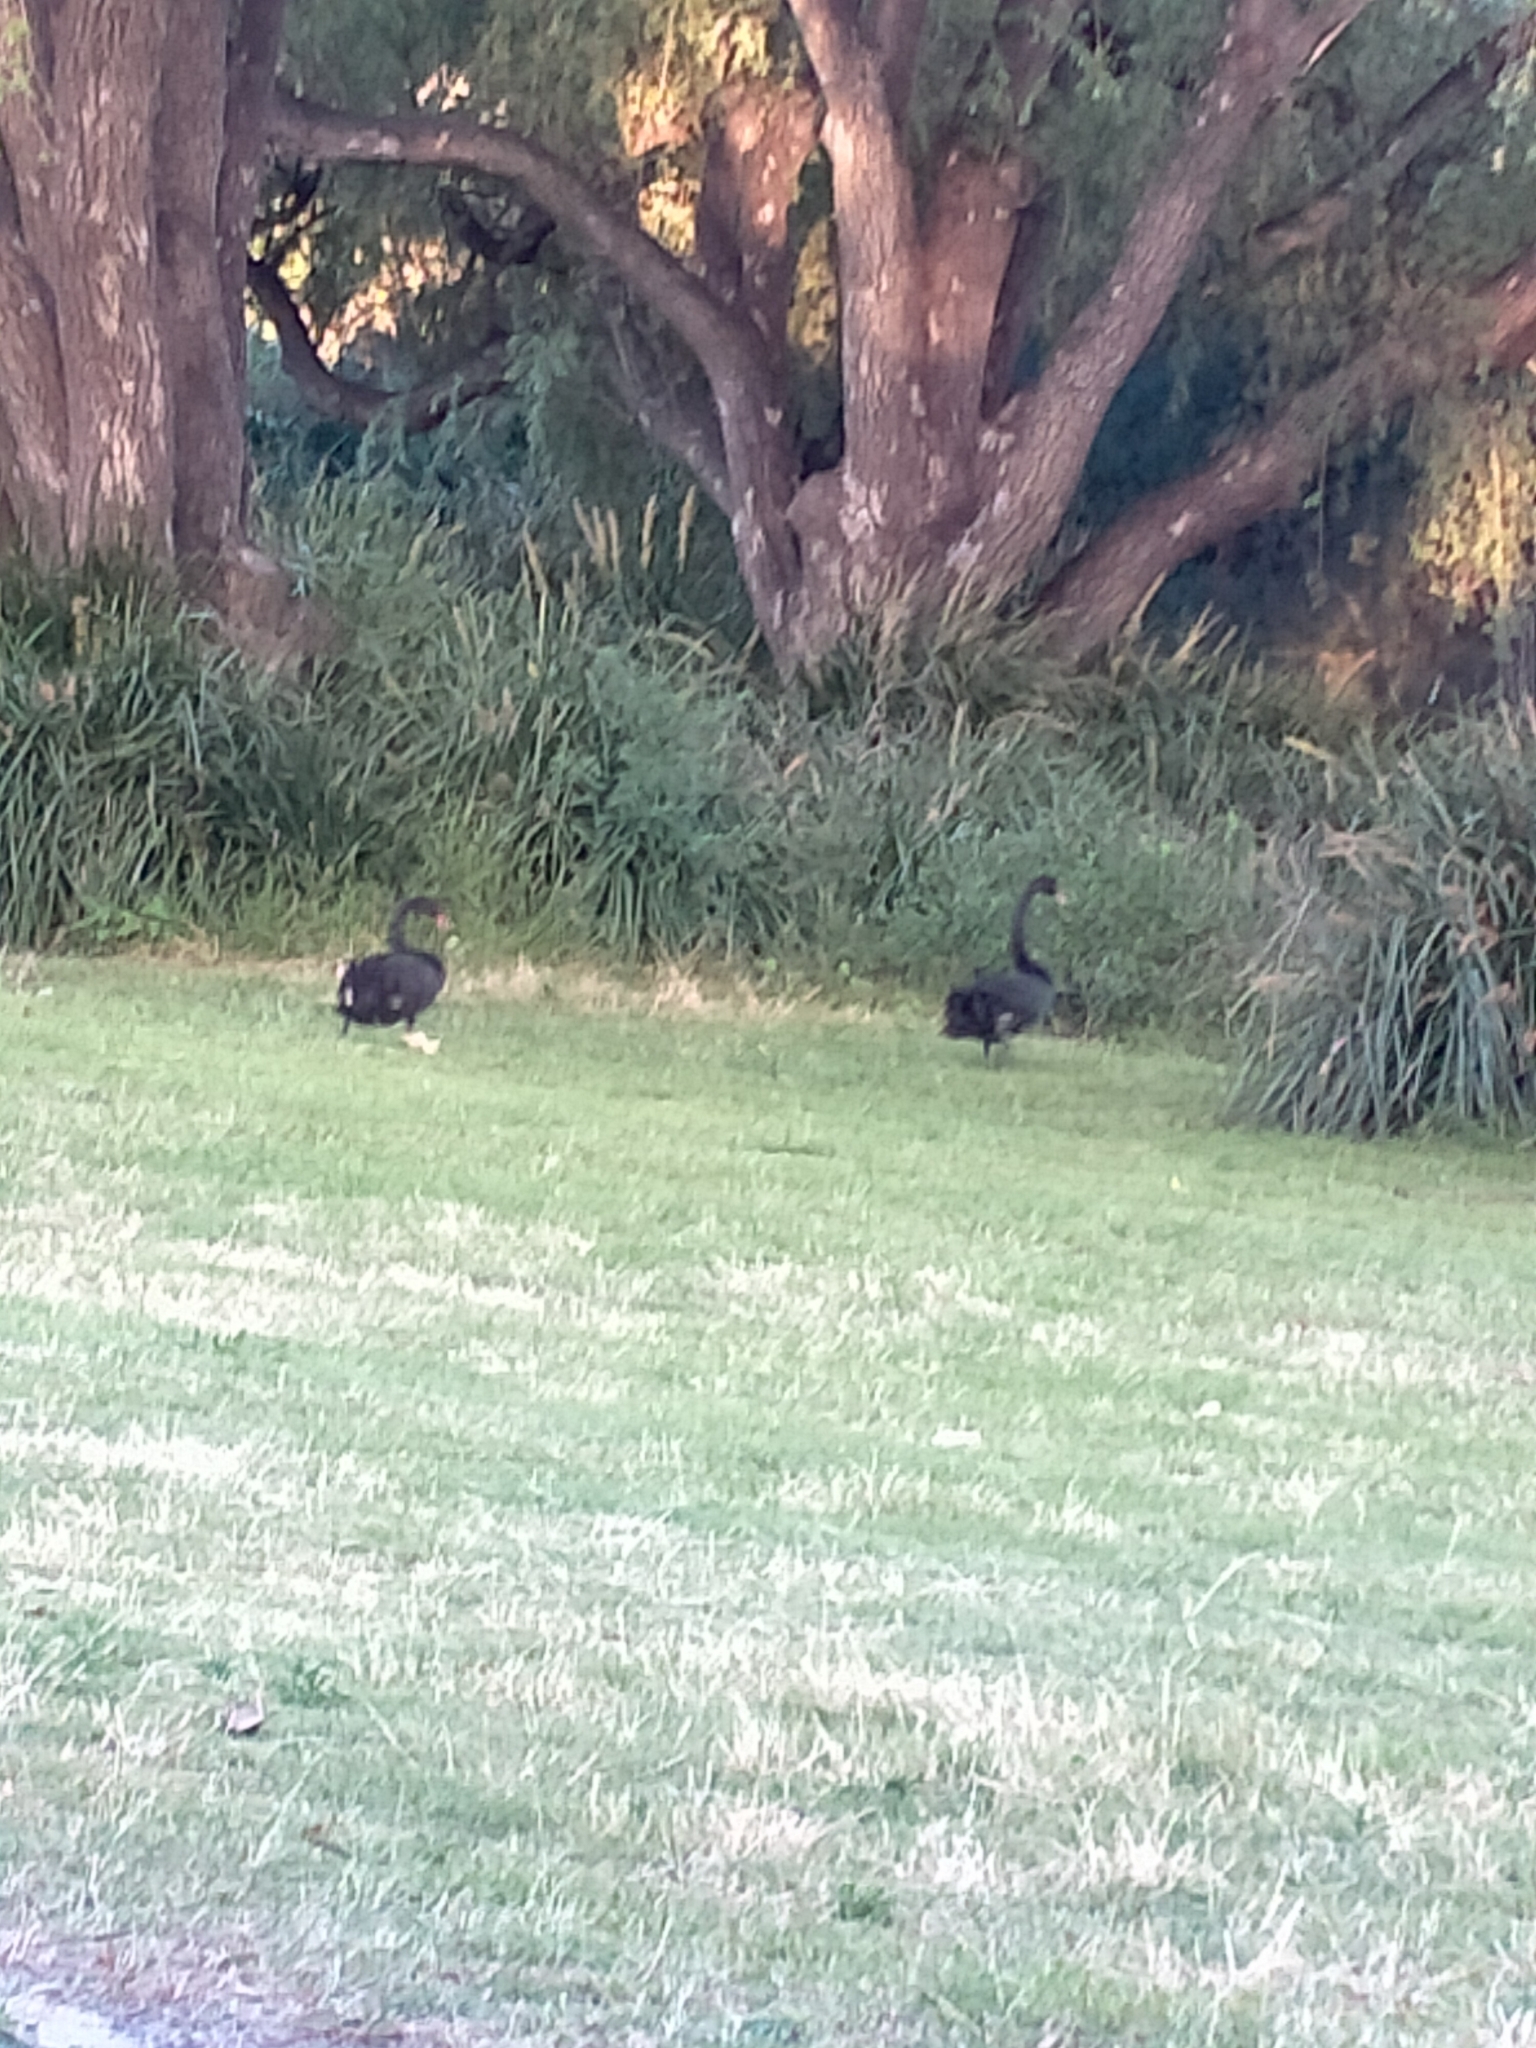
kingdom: Animalia
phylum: Chordata
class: Aves
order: Anseriformes
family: Anatidae
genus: Cygnus
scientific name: Cygnus atratus
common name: Black swan
